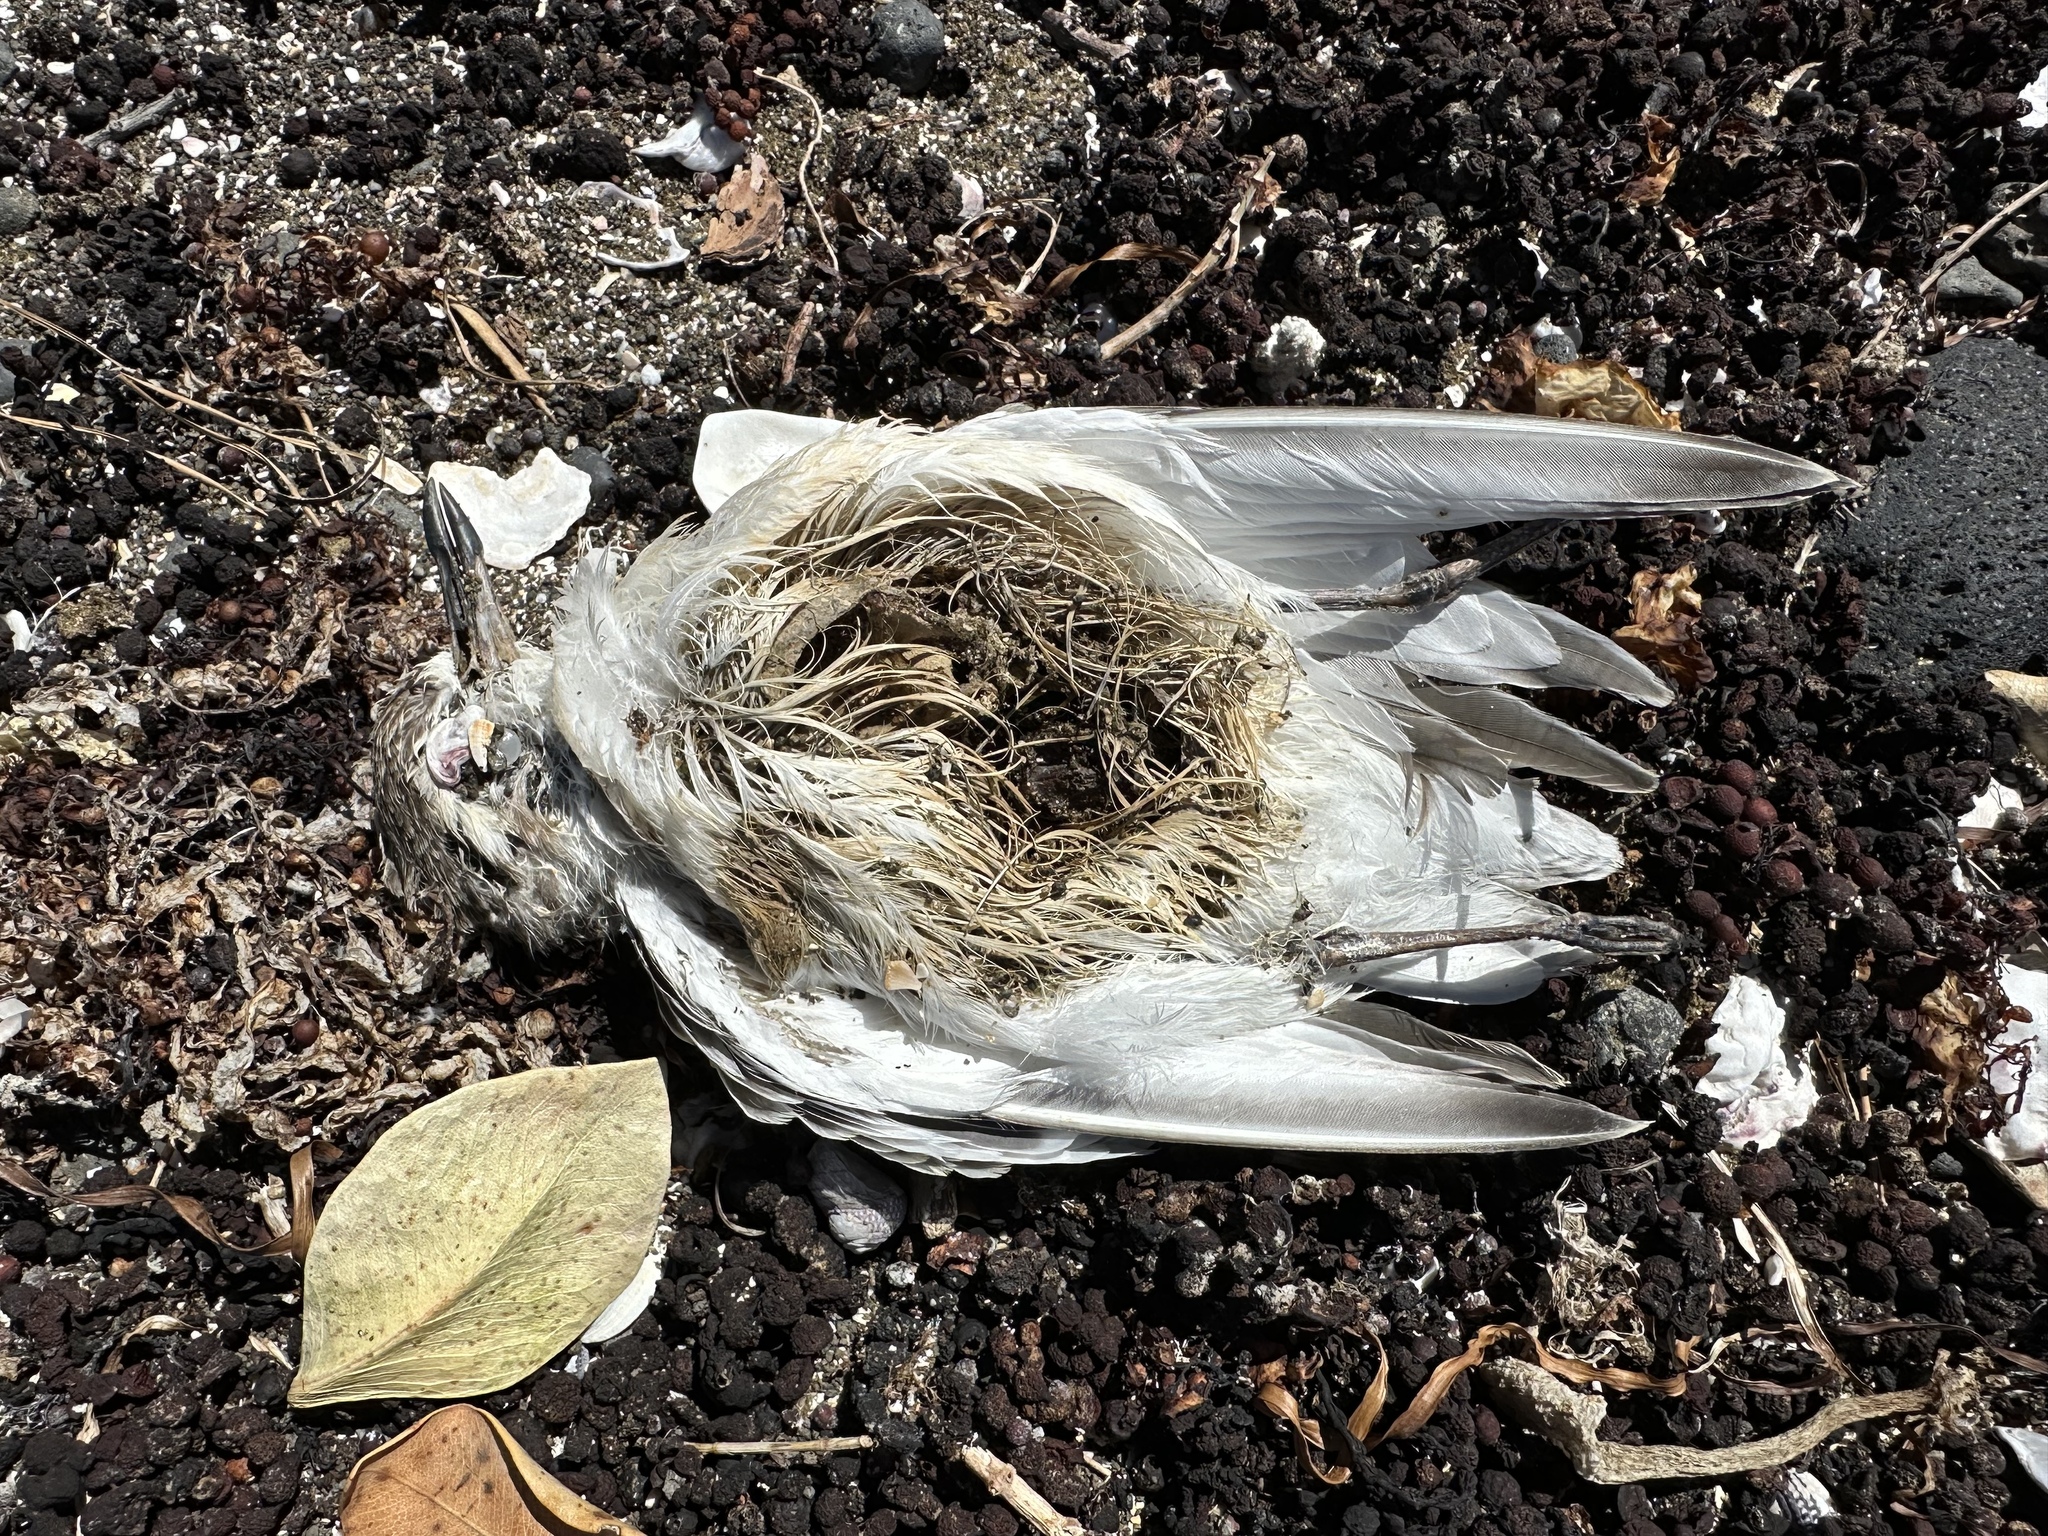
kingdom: Animalia
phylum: Chordata
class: Aves
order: Charadriiformes
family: Charadriidae
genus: Anarhynchus
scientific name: Anarhynchus
